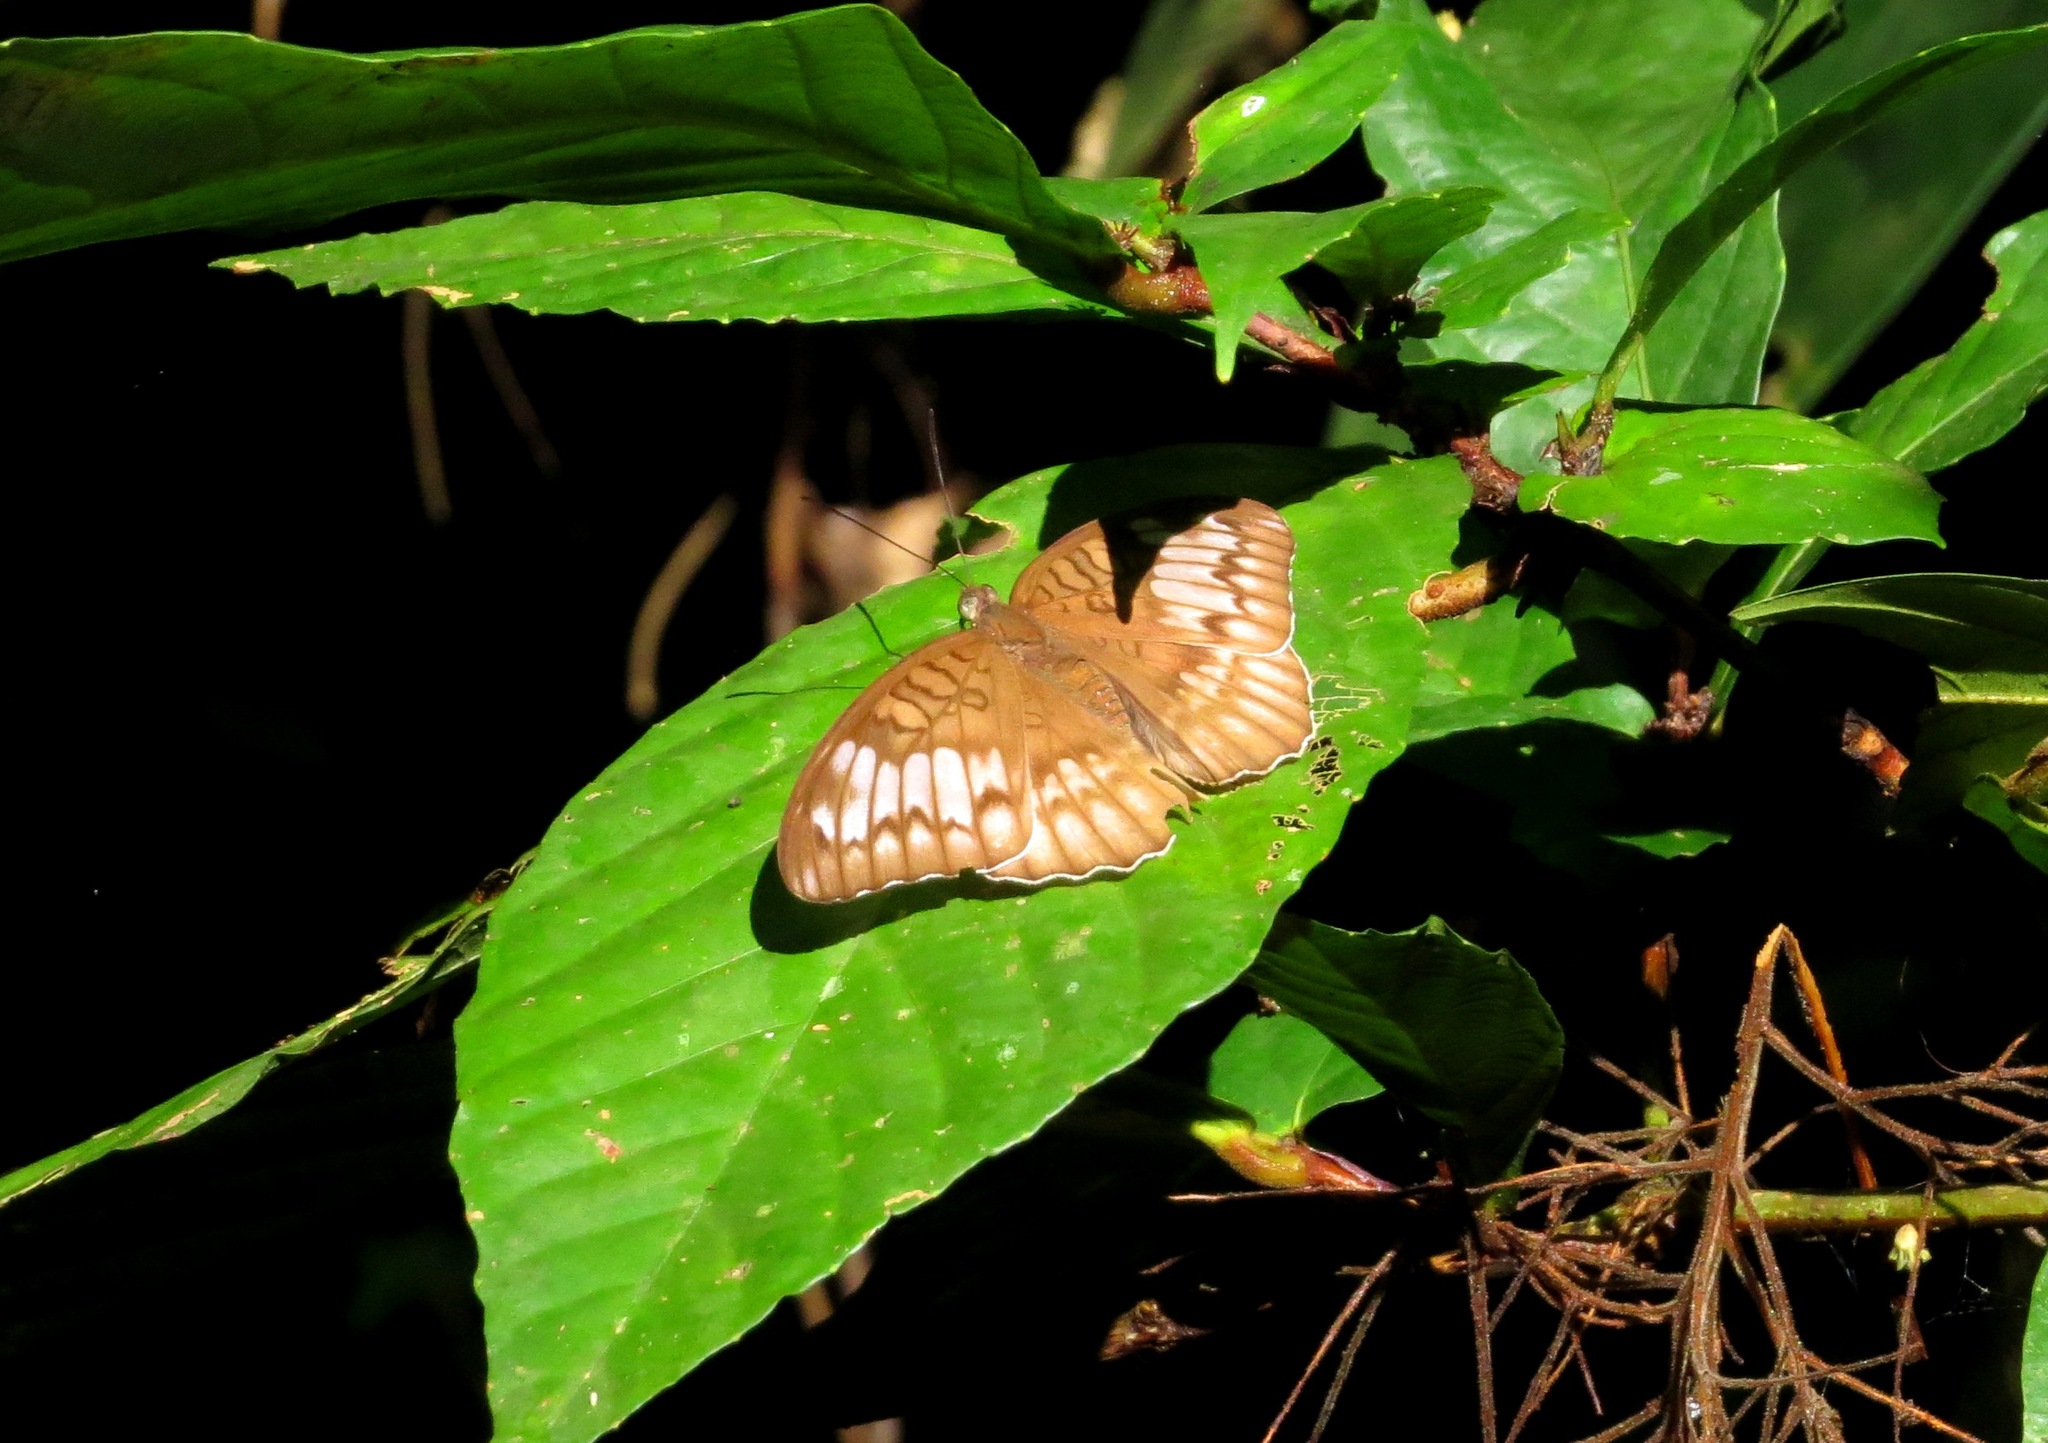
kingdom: Animalia
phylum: Arthropoda
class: Insecta
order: Lepidoptera
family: Nymphalidae
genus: Tanaecia
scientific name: Tanaecia iapis
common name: Horsfield's baron
